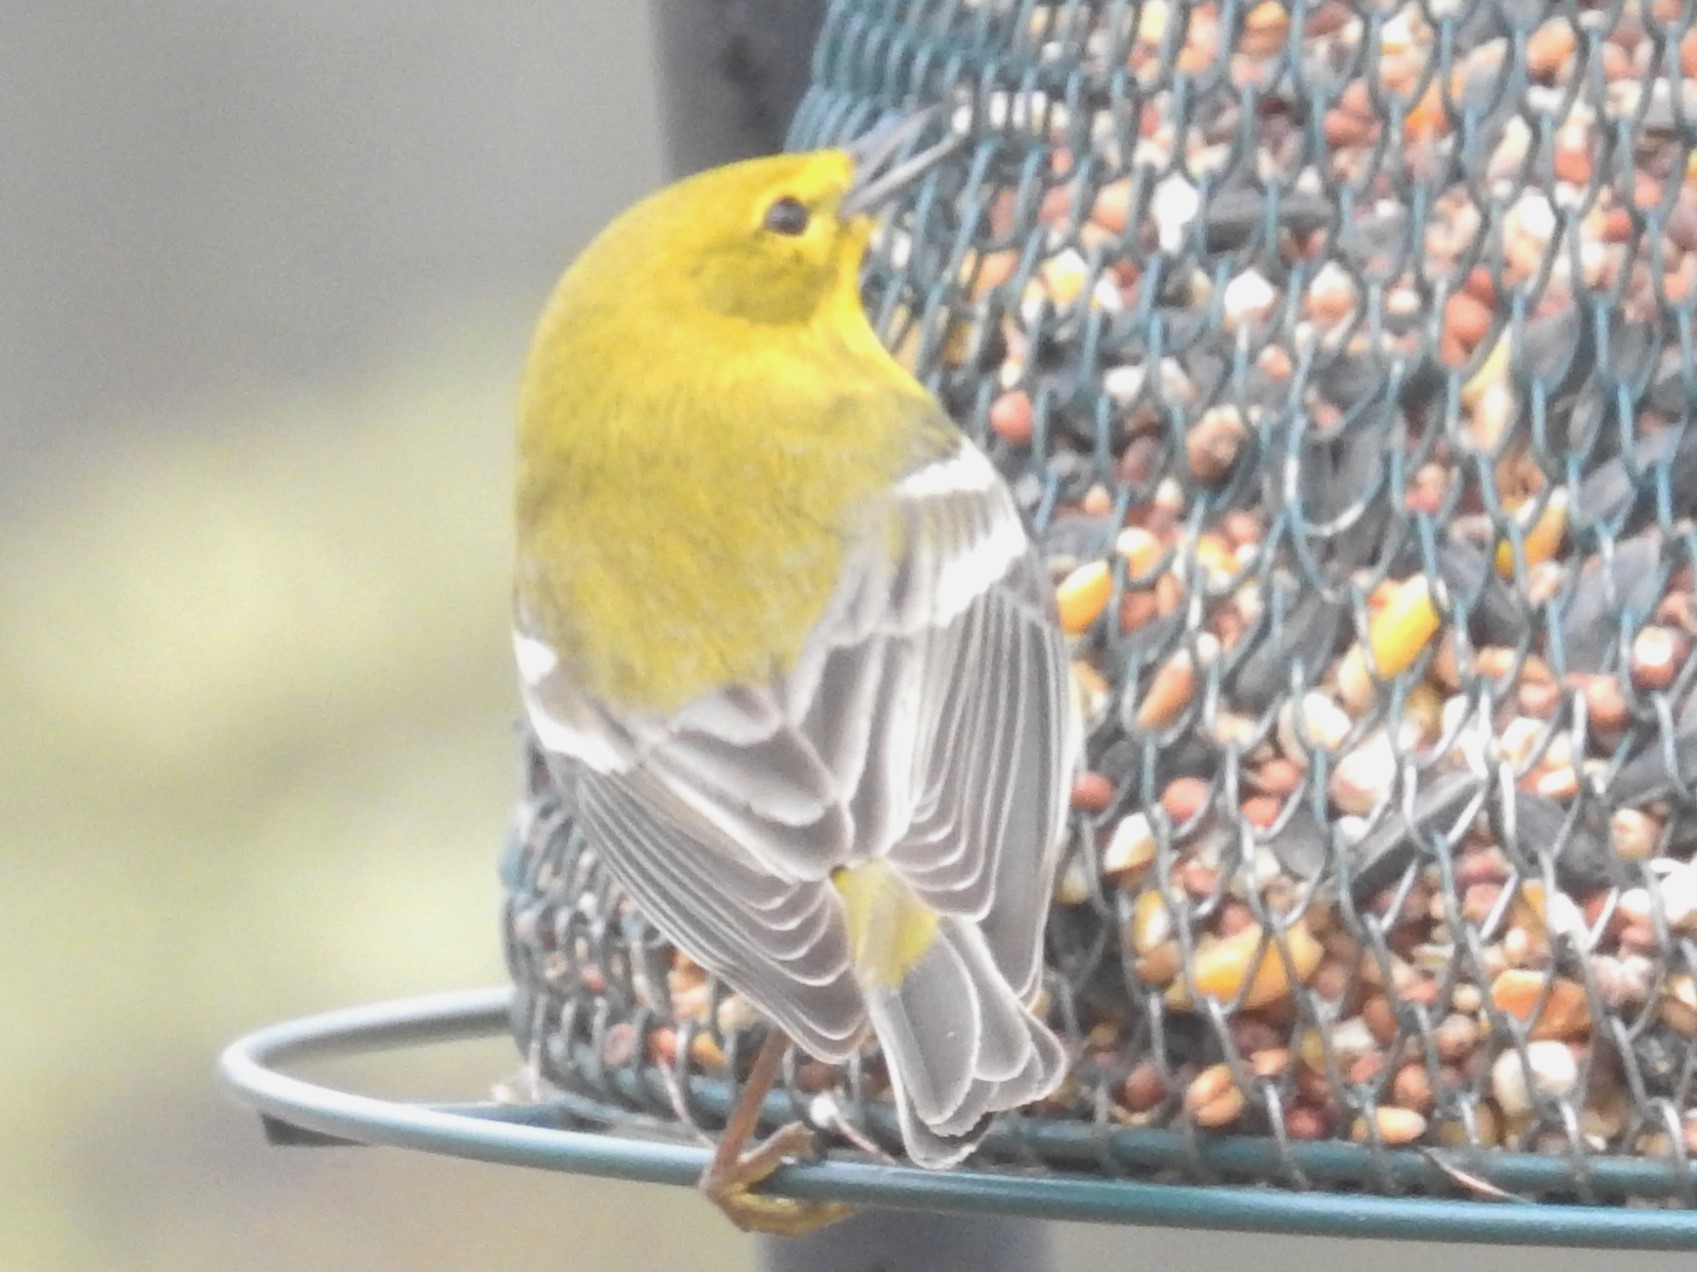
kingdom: Animalia
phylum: Chordata
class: Aves
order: Passeriformes
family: Parulidae
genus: Setophaga
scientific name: Setophaga pinus
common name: Pine warbler
